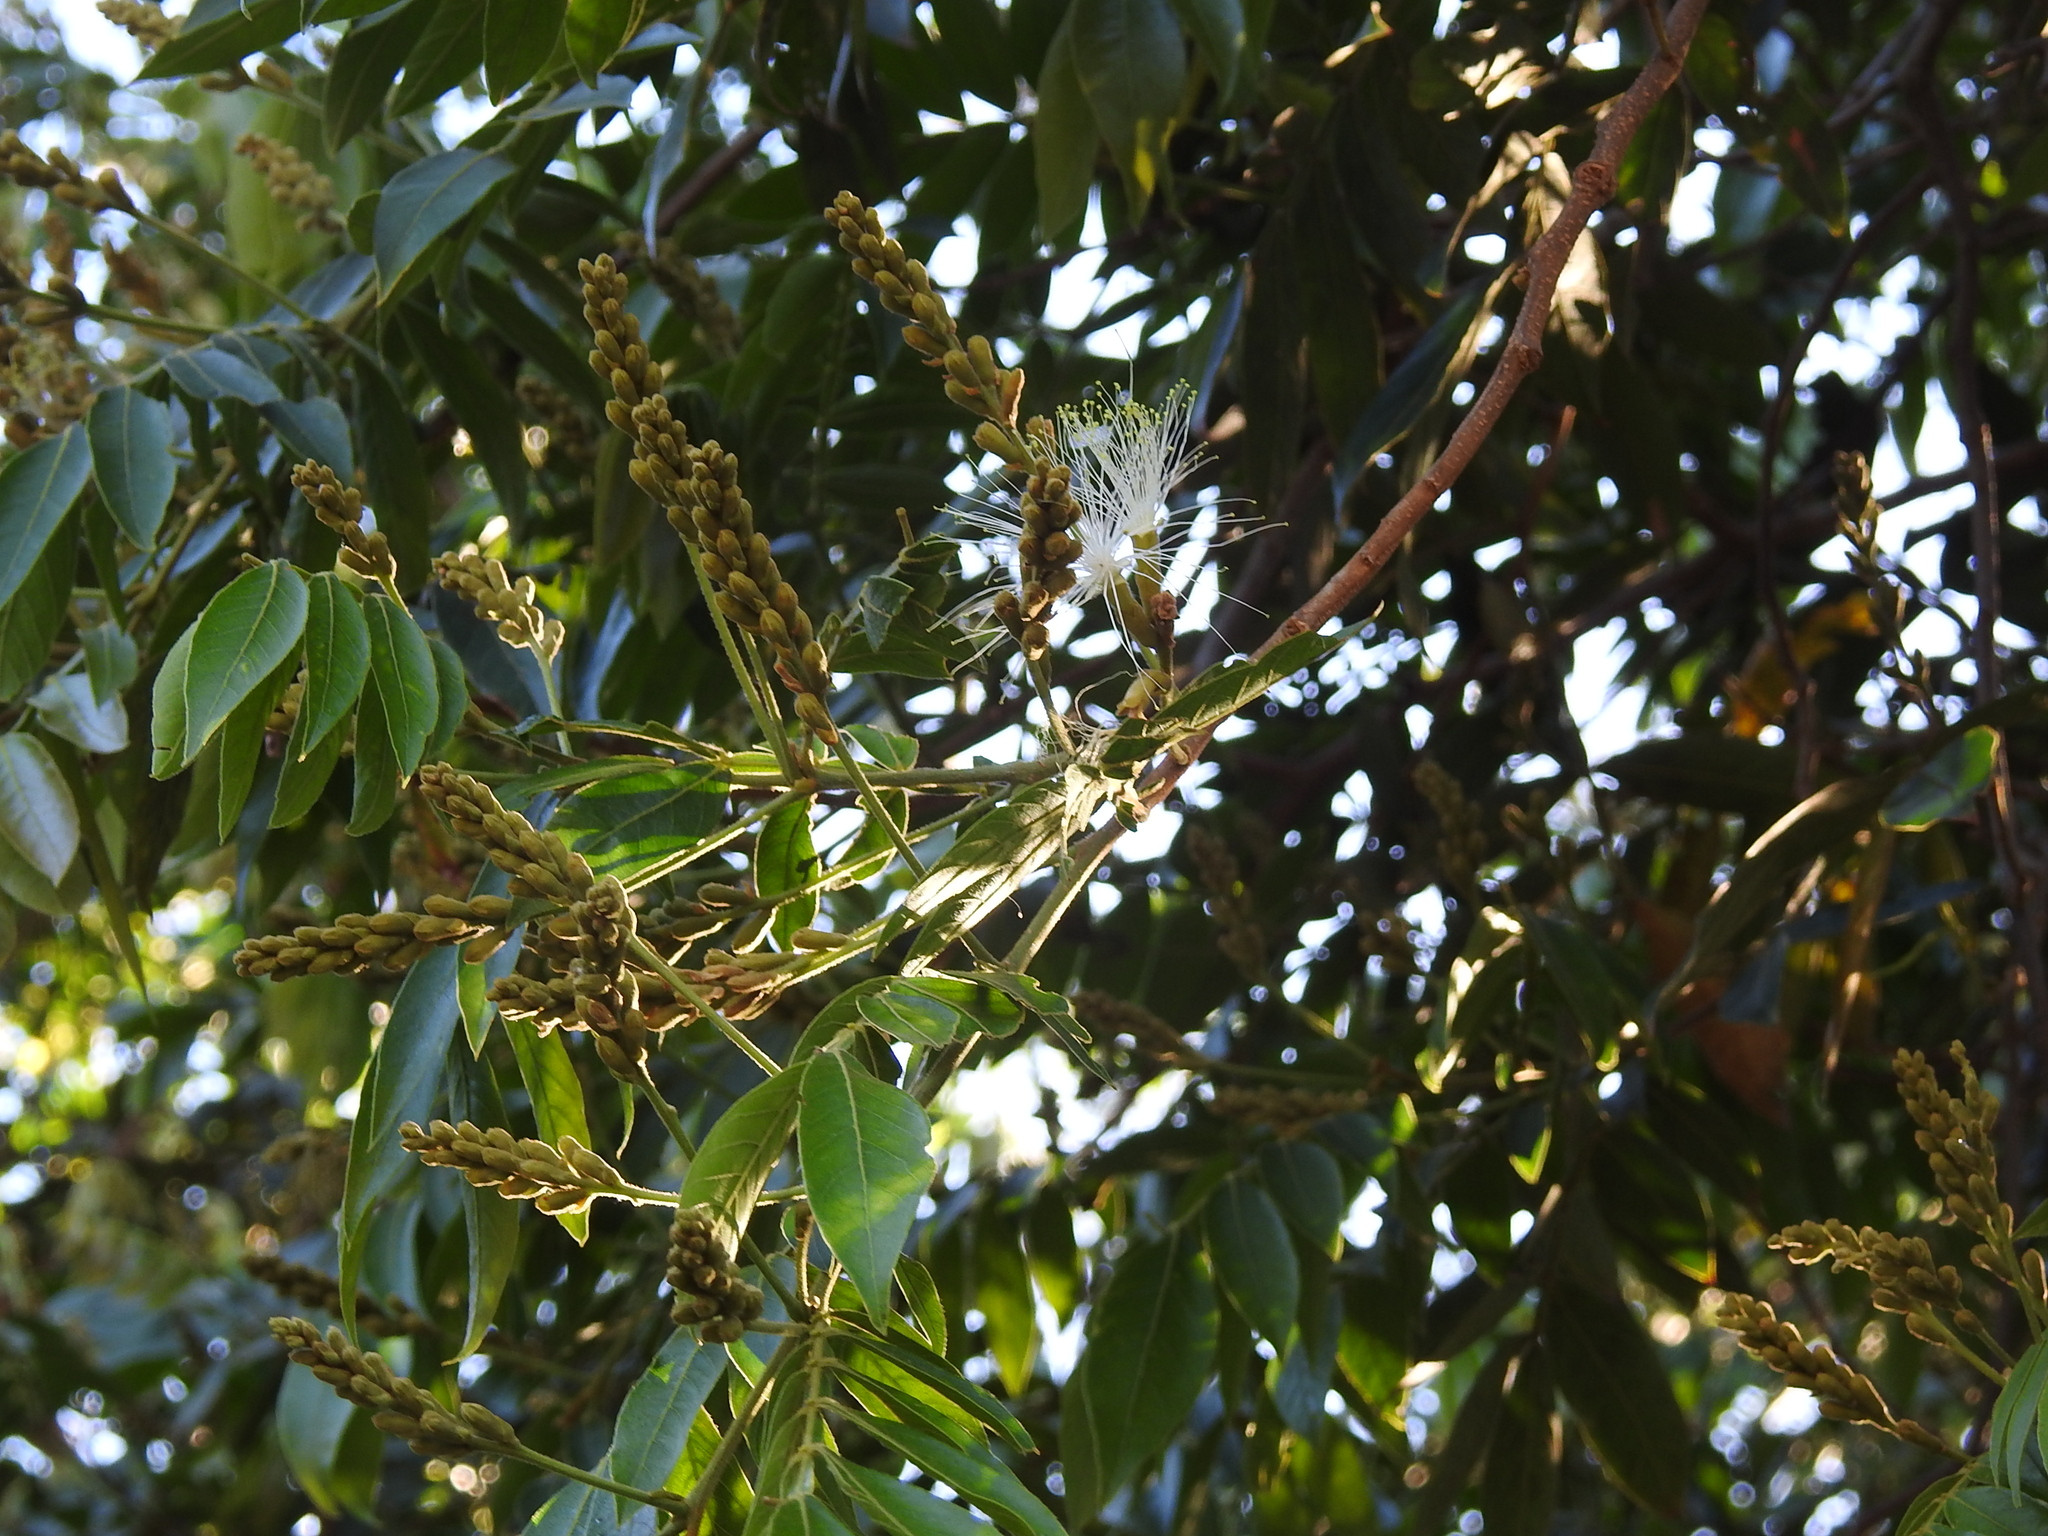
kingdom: Plantae
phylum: Tracheophyta
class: Magnoliopsida
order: Fabales
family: Fabaceae
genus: Inga
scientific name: Inga uraguensis
